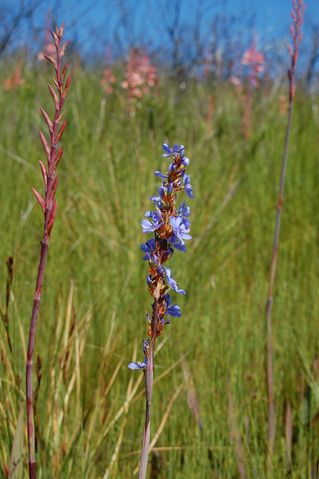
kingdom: Plantae
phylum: Tracheophyta
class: Liliopsida
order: Asparagales
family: Iridaceae
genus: Aristea
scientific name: Aristea bakeri
